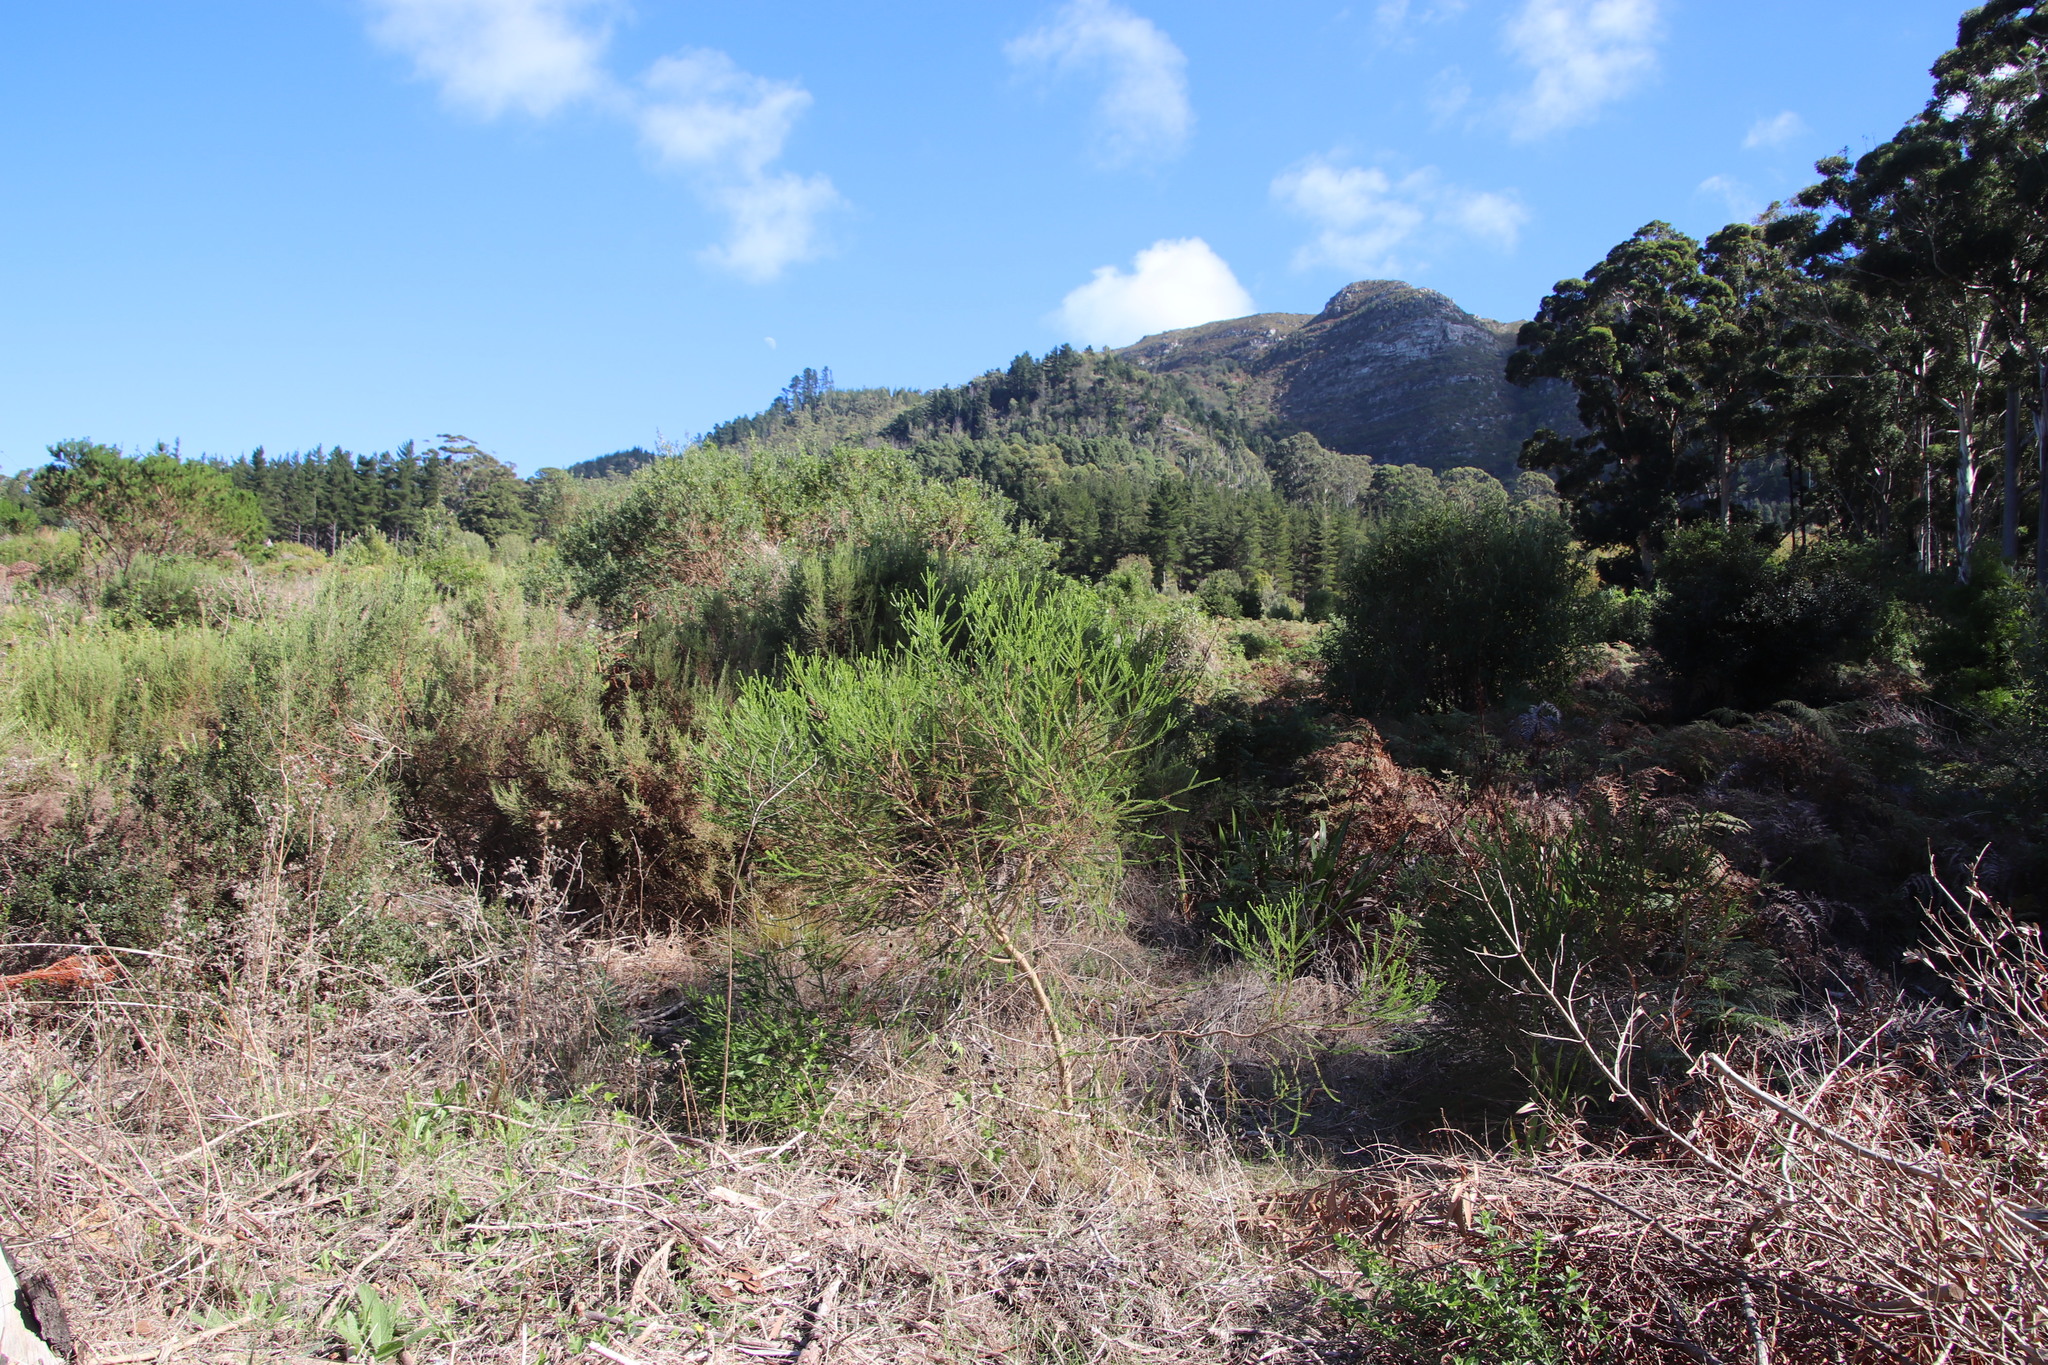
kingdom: Plantae
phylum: Tracheophyta
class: Magnoliopsida
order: Asterales
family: Asteraceae
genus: Euryops
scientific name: Euryops virgineus
